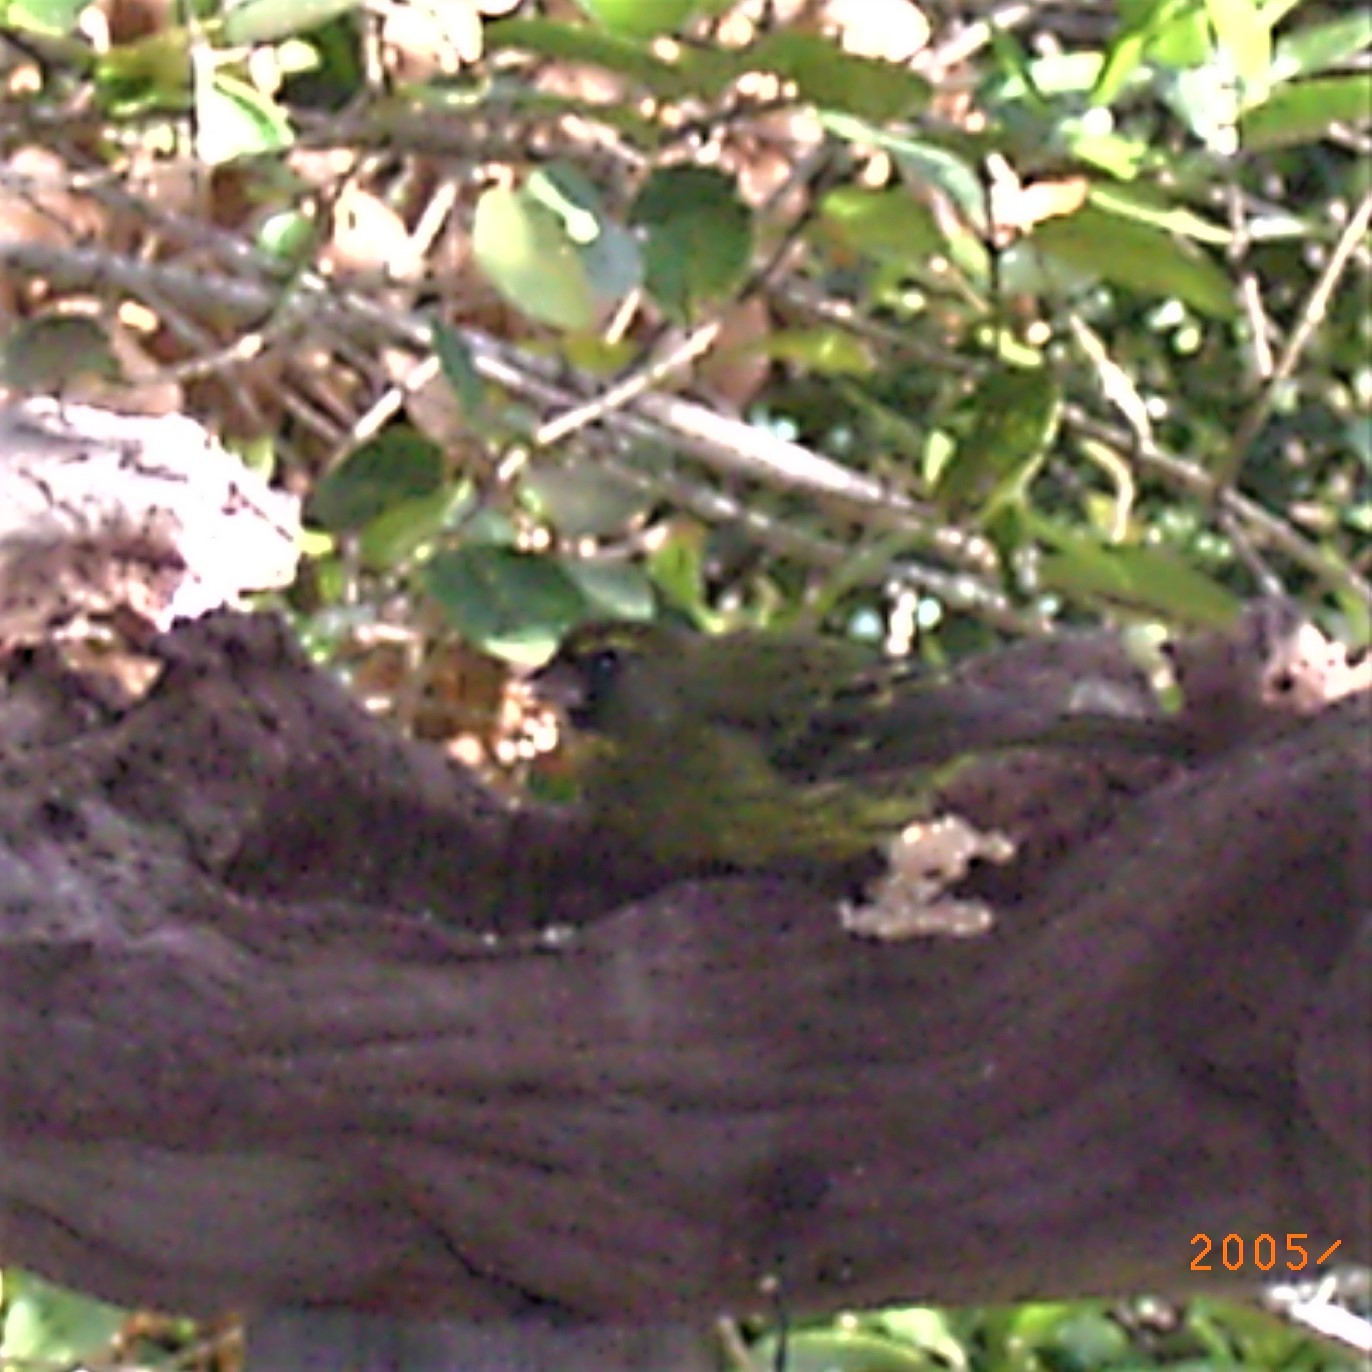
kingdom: Animalia
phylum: Chordata
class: Aves
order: Passeriformes
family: Fringillidae
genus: Crithagra
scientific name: Crithagra scotops
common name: Forest canary
